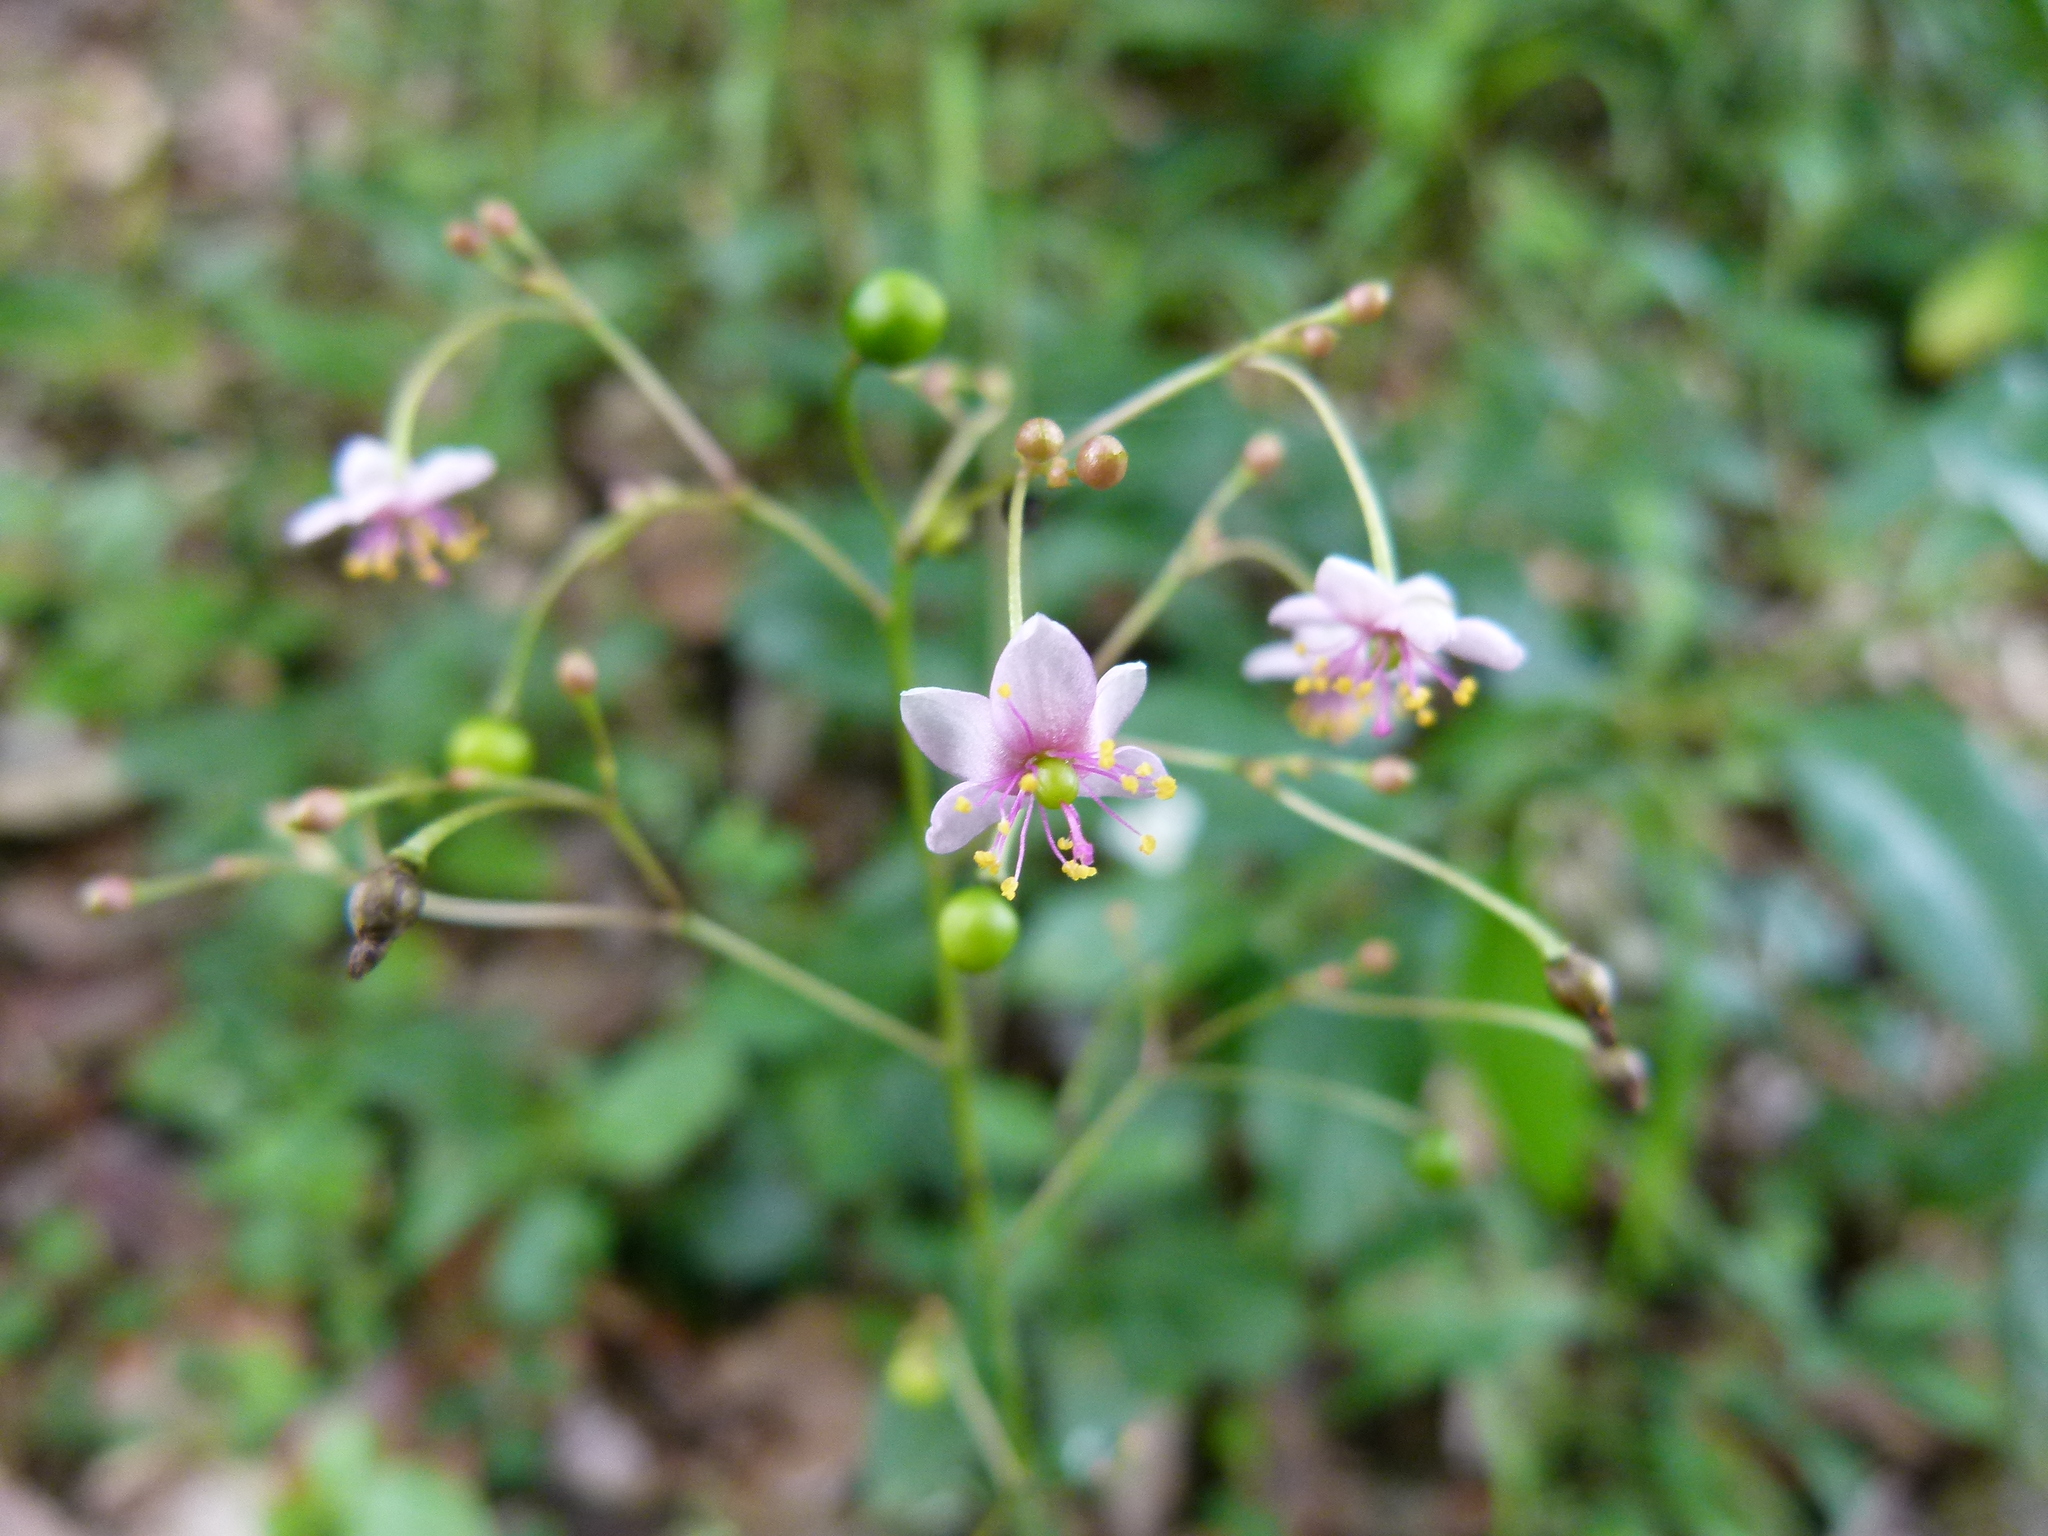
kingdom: Plantae
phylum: Tracheophyta
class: Magnoliopsida
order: Caryophyllales
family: Talinaceae
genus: Talinum
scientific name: Talinum paniculatum
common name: Jewels of opar
